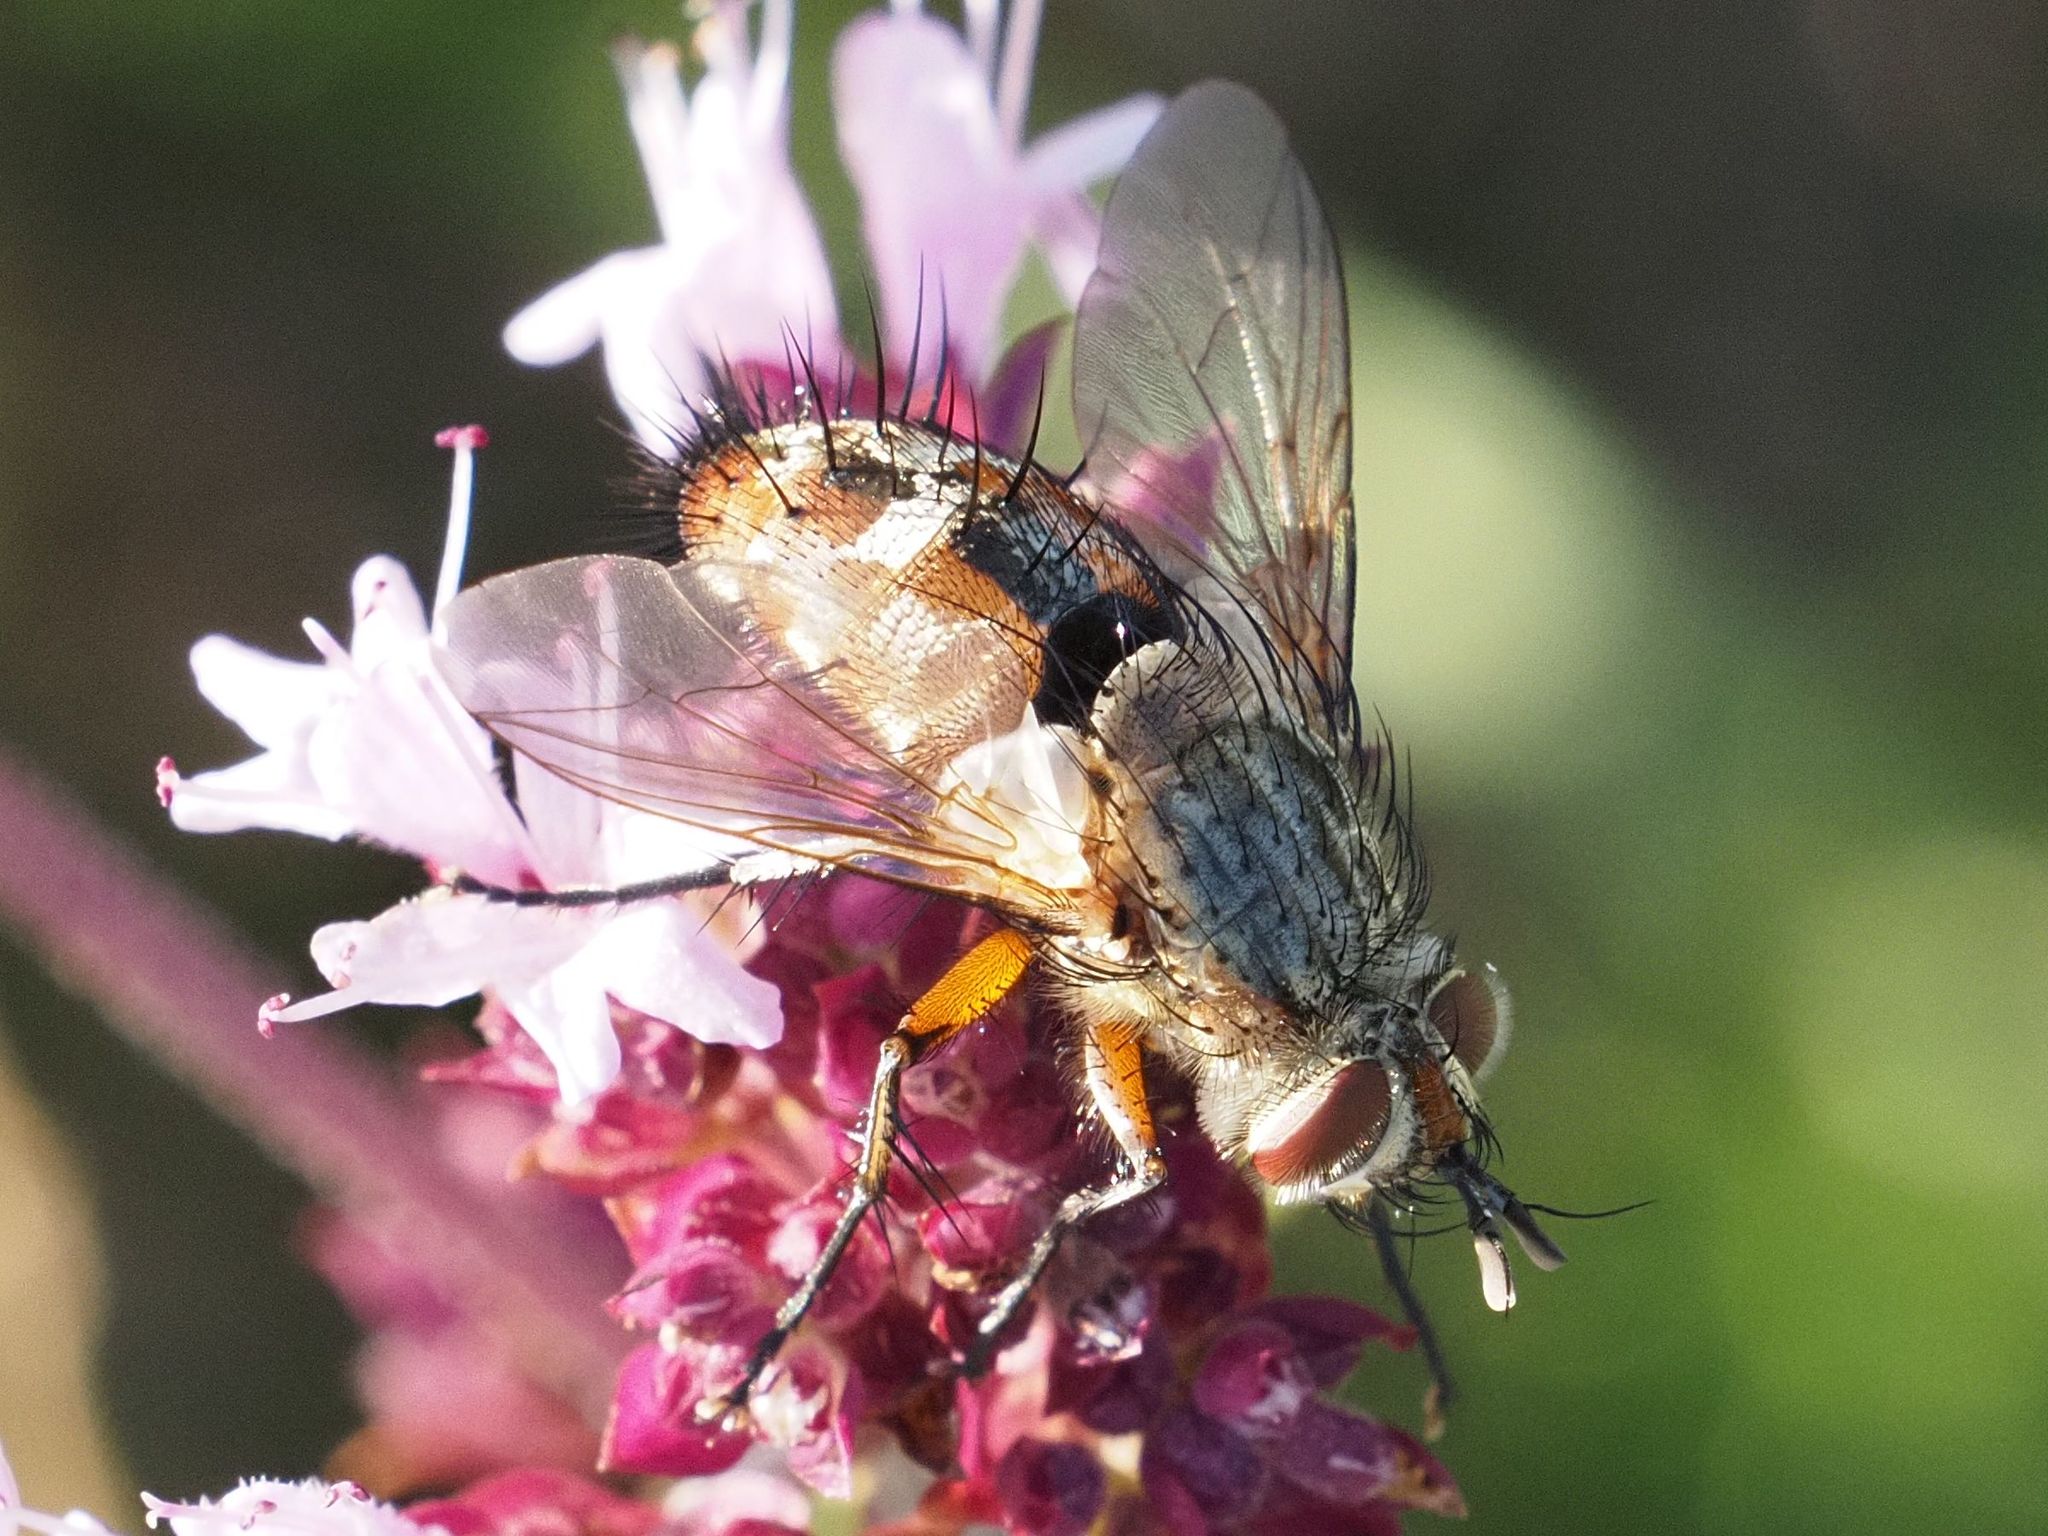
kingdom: Animalia
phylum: Arthropoda
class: Insecta
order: Diptera
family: Tachinidae
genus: Linnaemya
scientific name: Linnaemya vulpina
